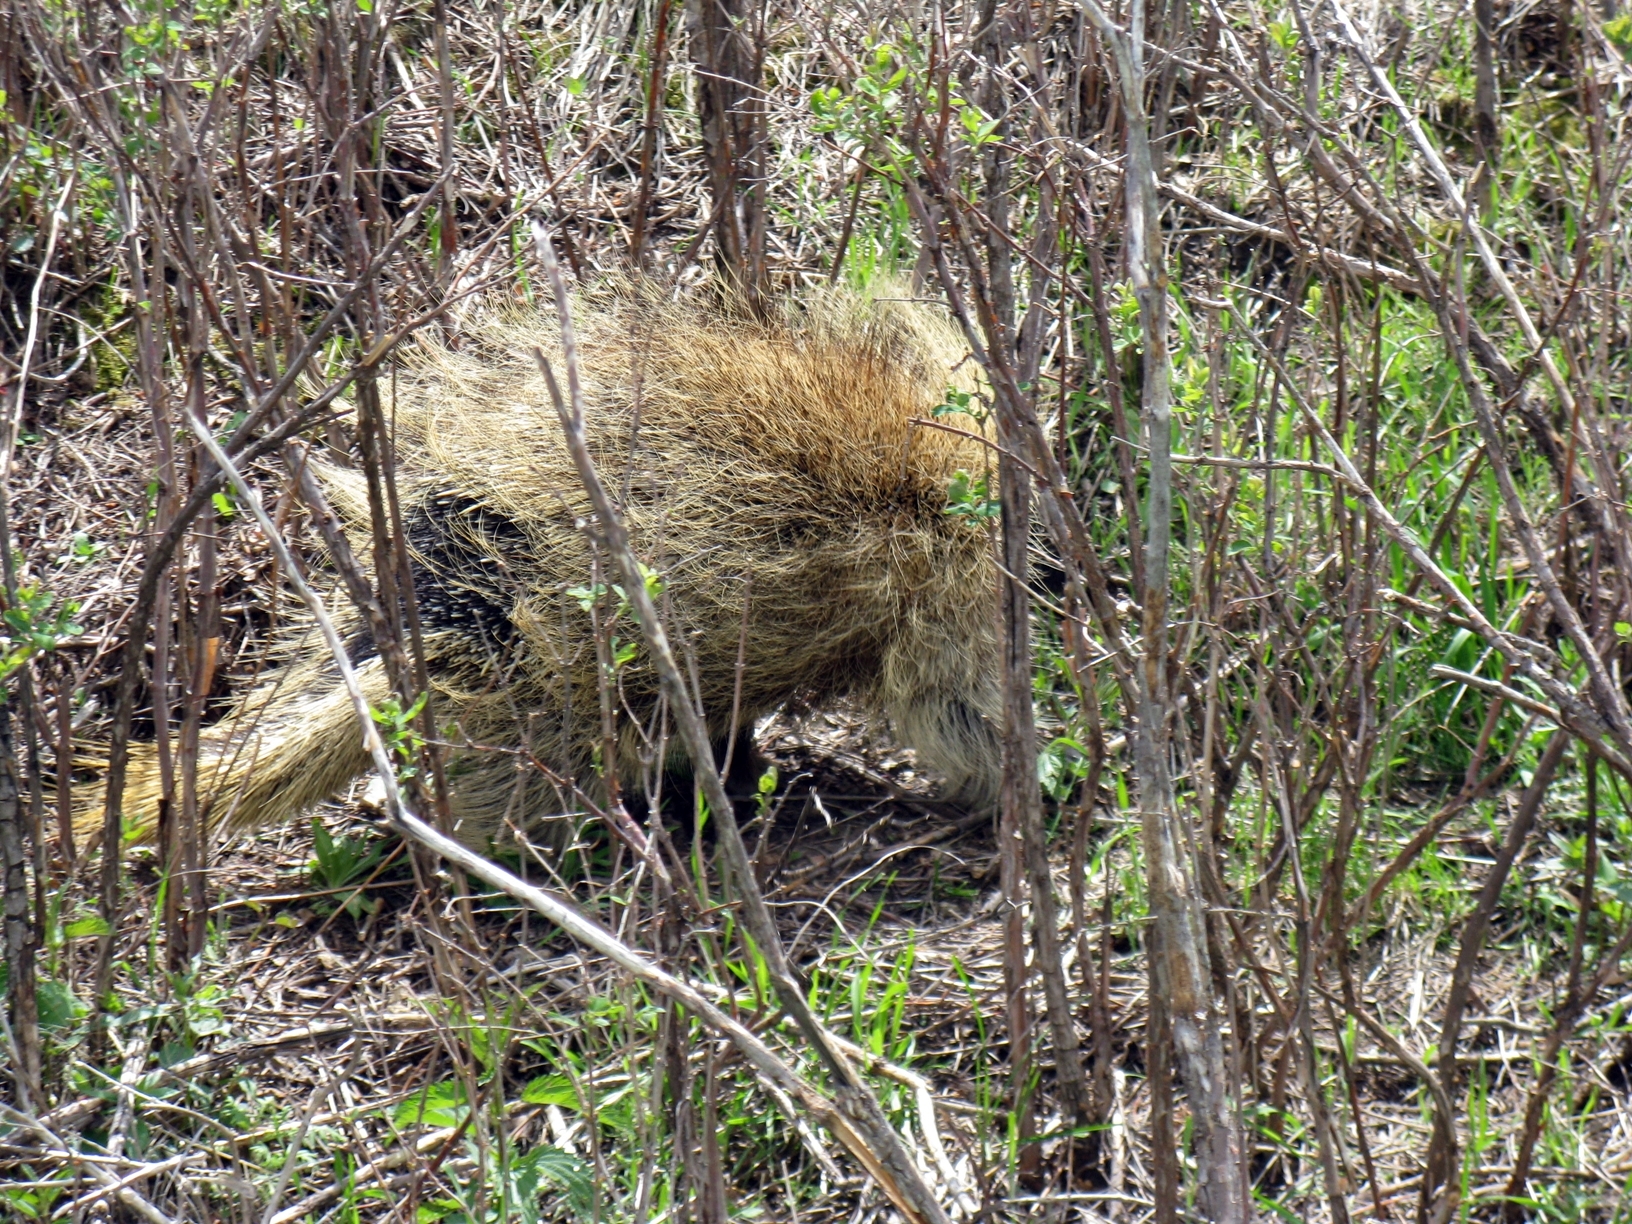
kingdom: Animalia
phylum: Chordata
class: Mammalia
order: Rodentia
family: Erethizontidae
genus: Erethizon
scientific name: Erethizon dorsatus
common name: North american porcupine
